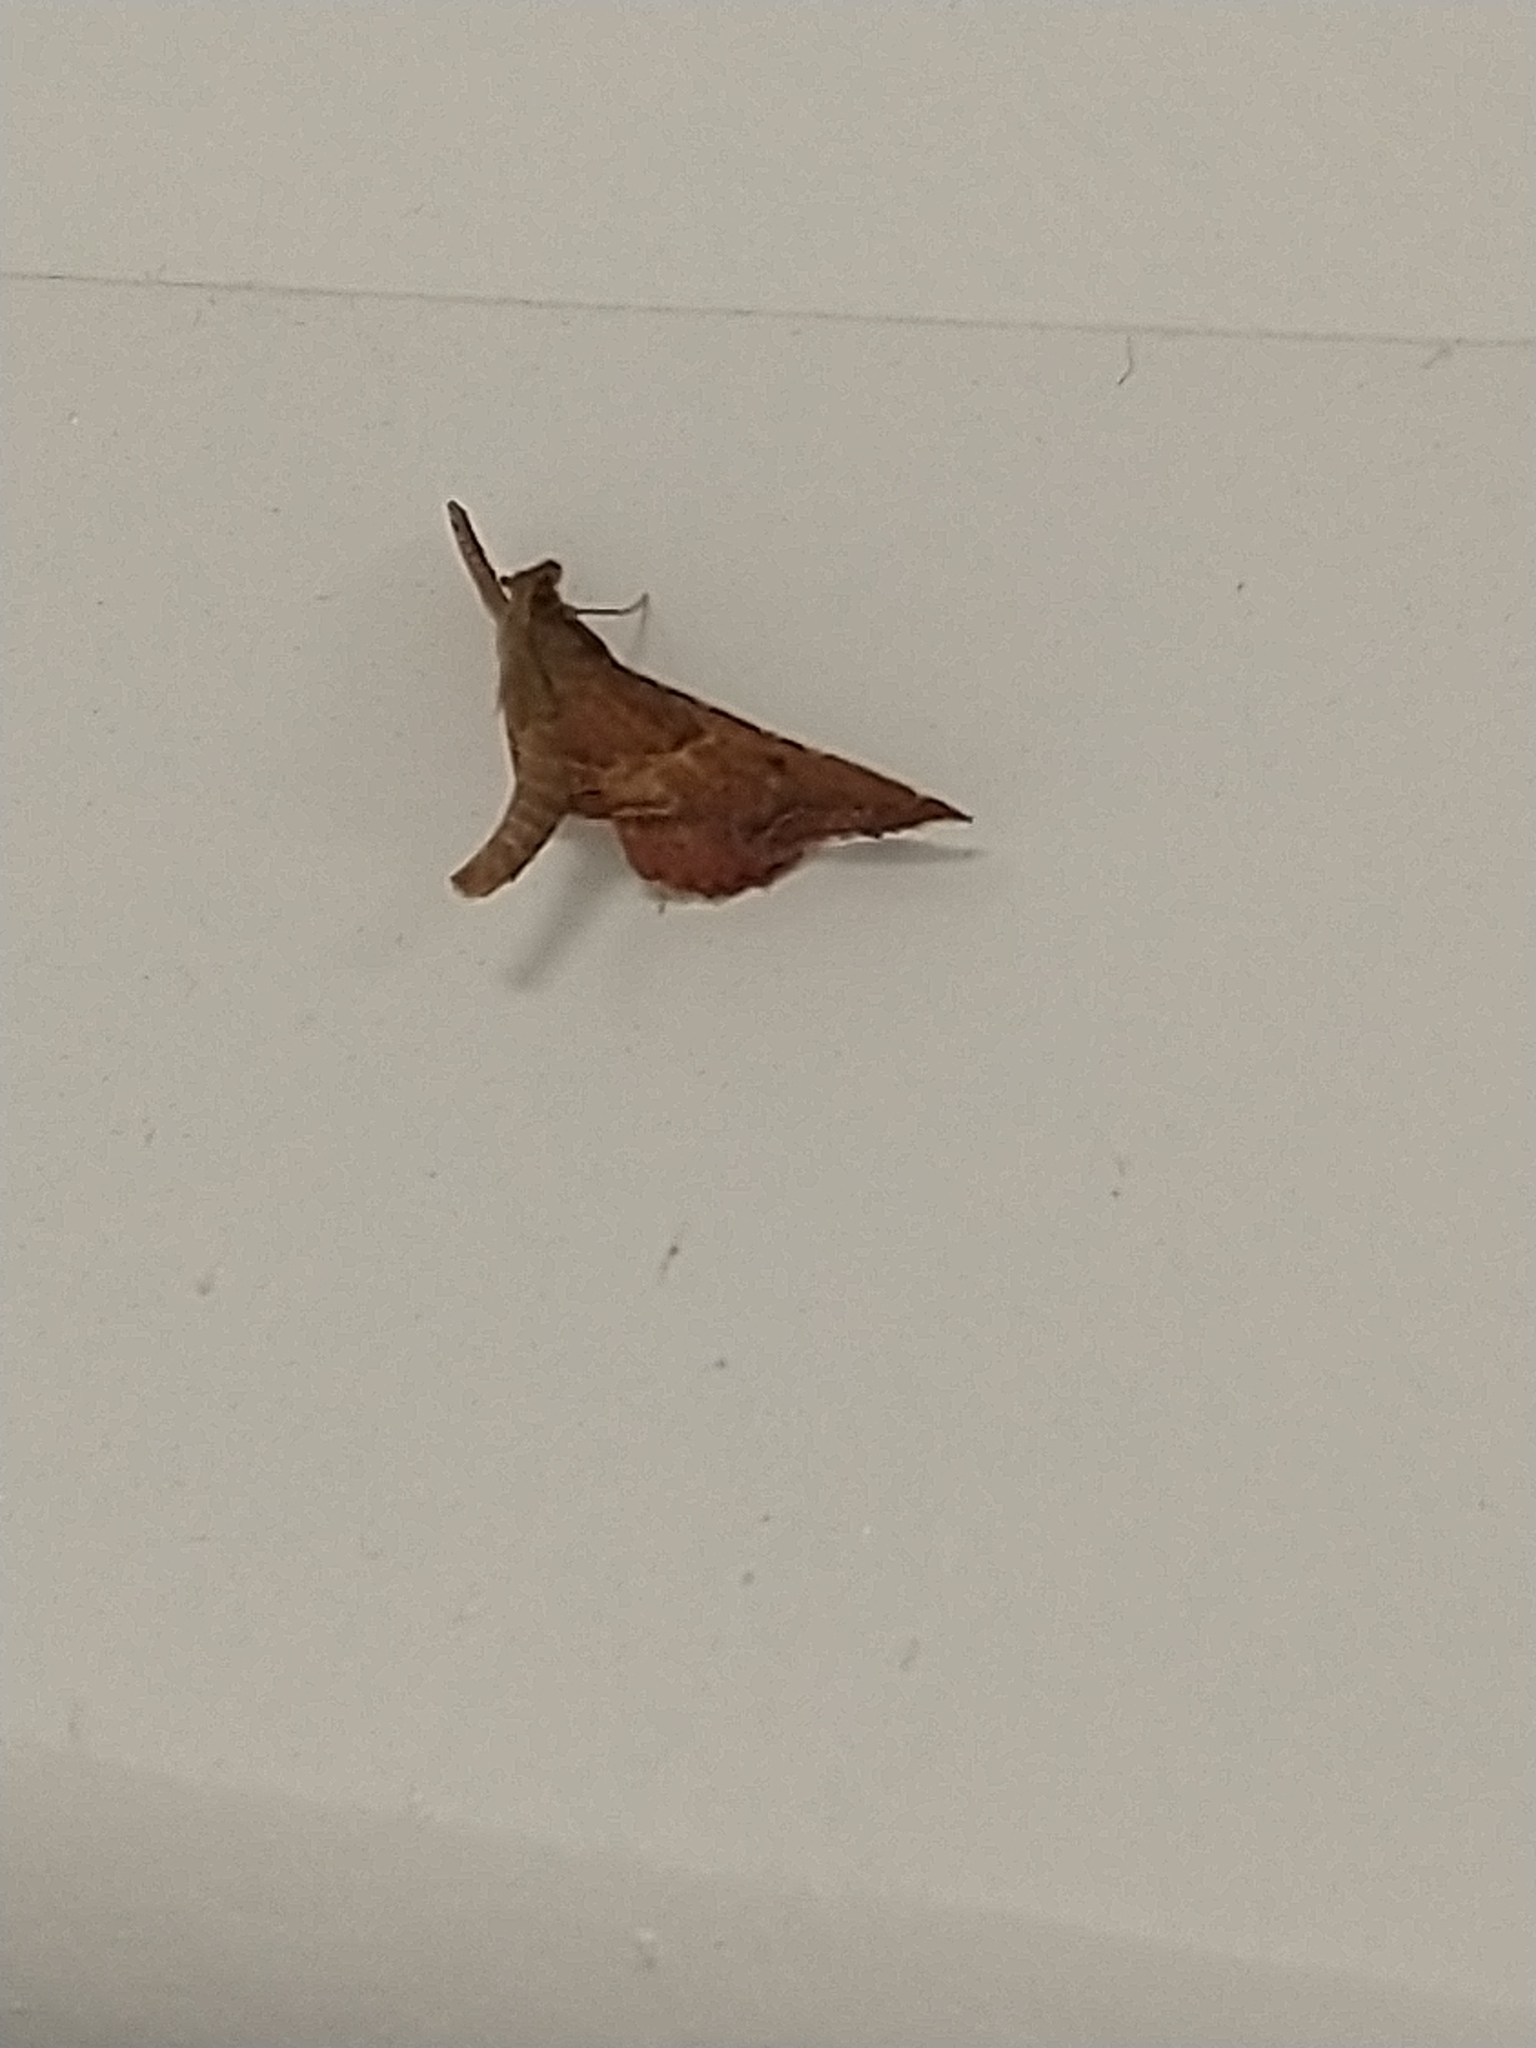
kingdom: Animalia
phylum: Arthropoda
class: Insecta
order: Lepidoptera
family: Pyralidae
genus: Endotricha
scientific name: Endotricha flammealis
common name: Rosy tabby
